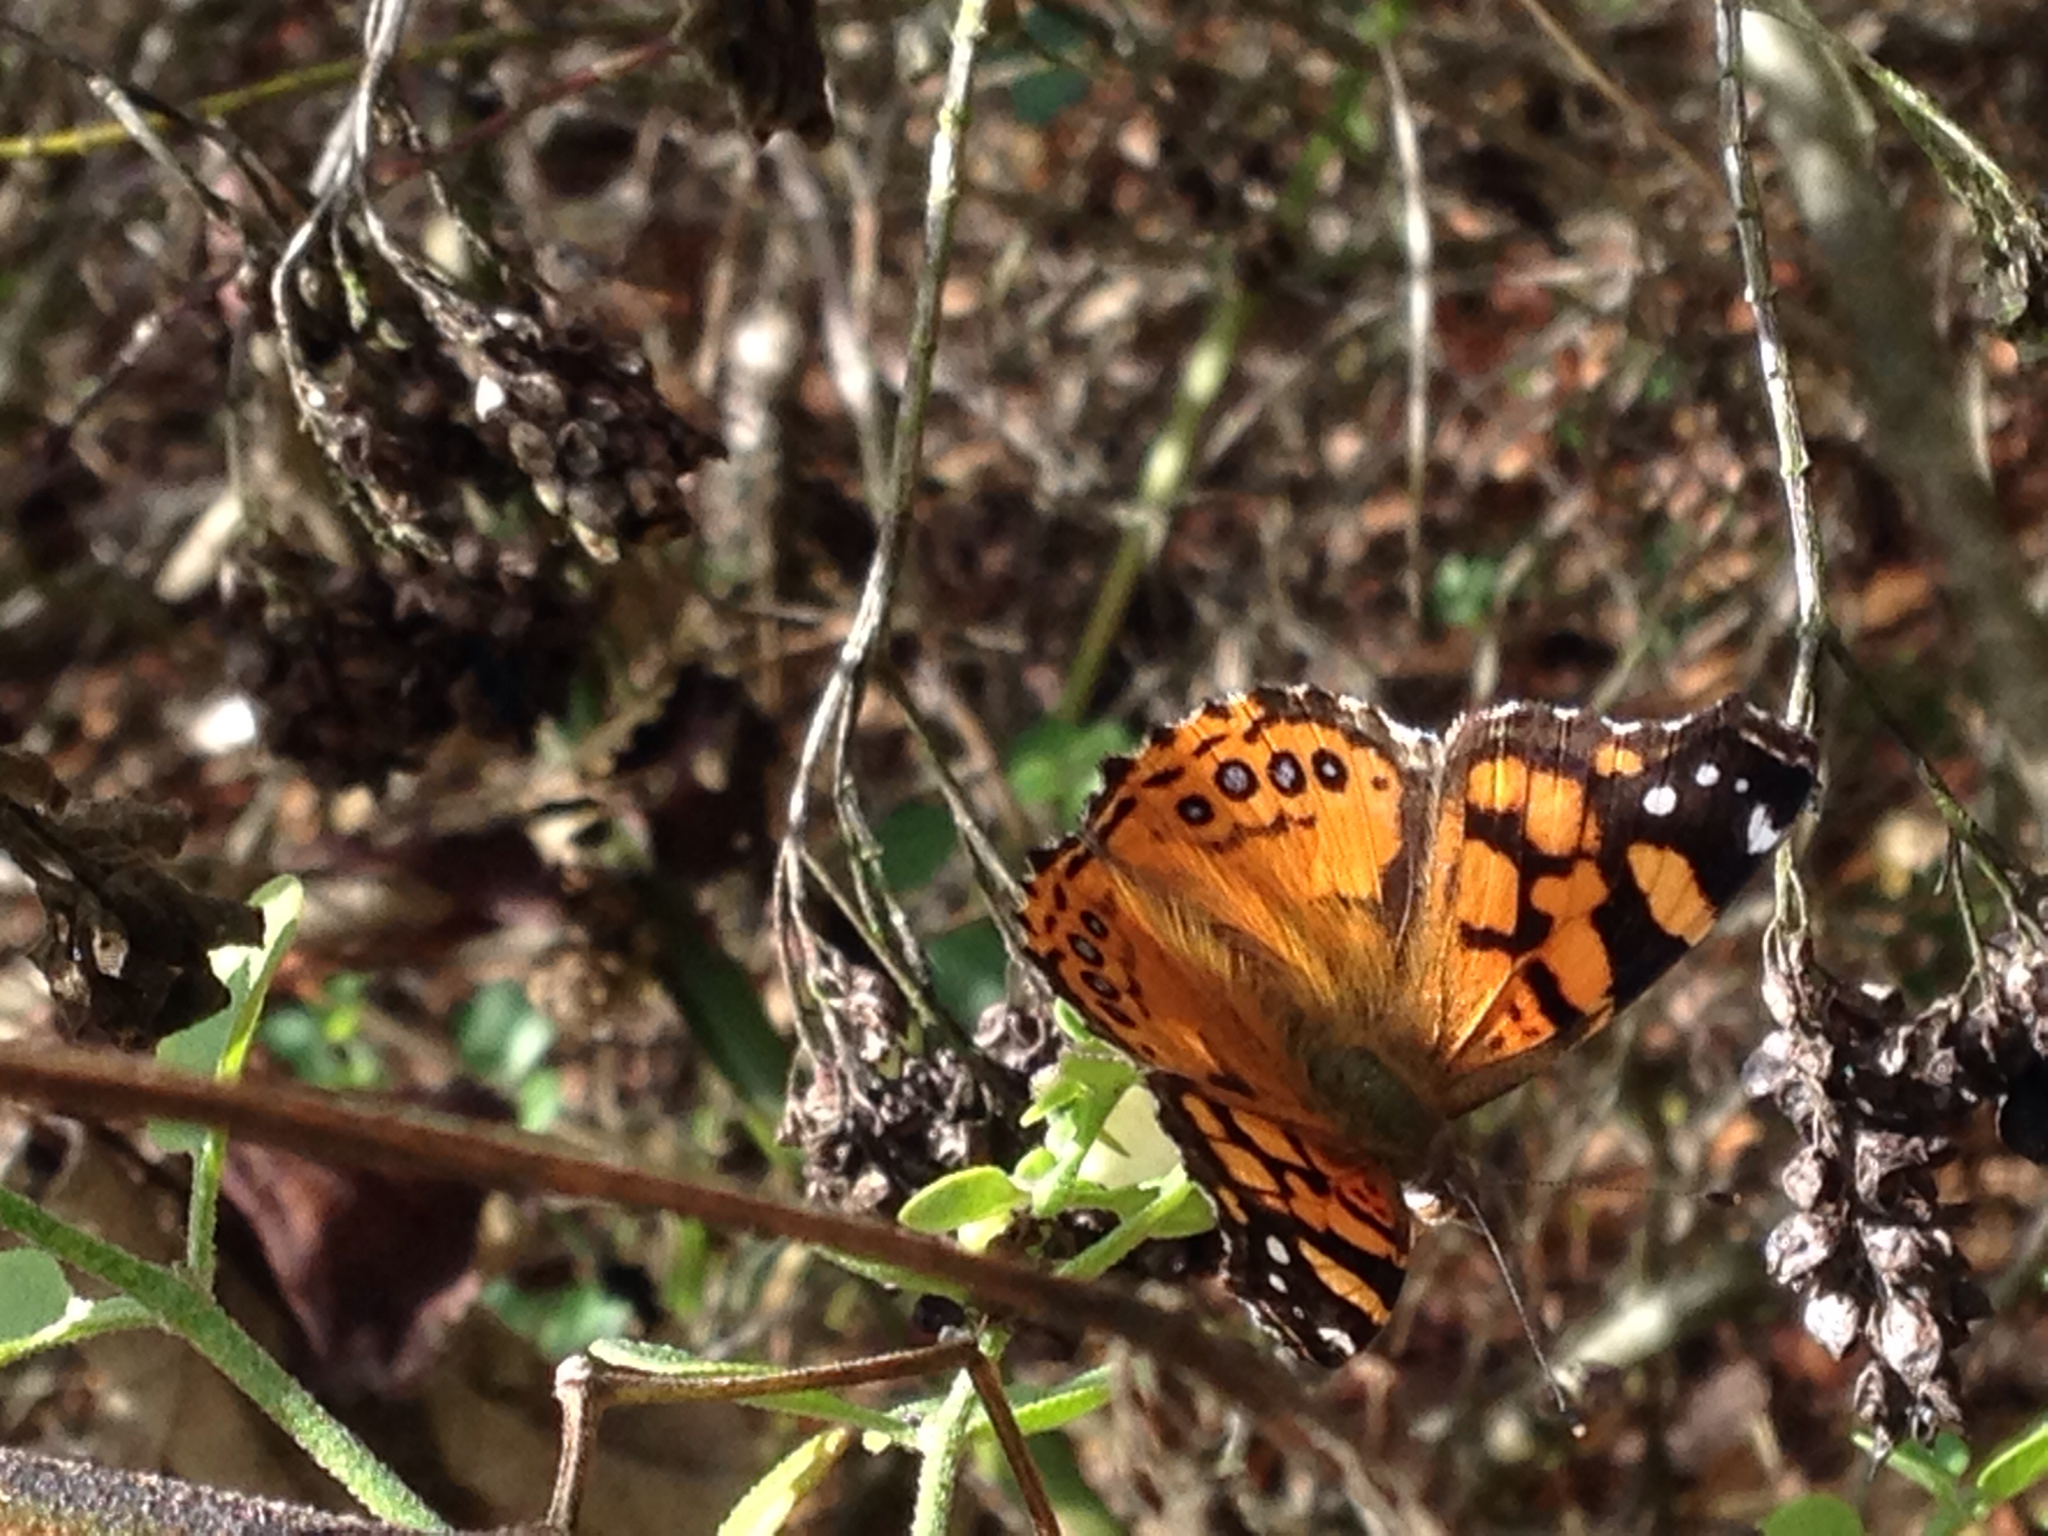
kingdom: Animalia
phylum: Arthropoda
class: Insecta
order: Lepidoptera
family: Nymphalidae
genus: Vanessa
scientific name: Vanessa annabella
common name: West coast lady
